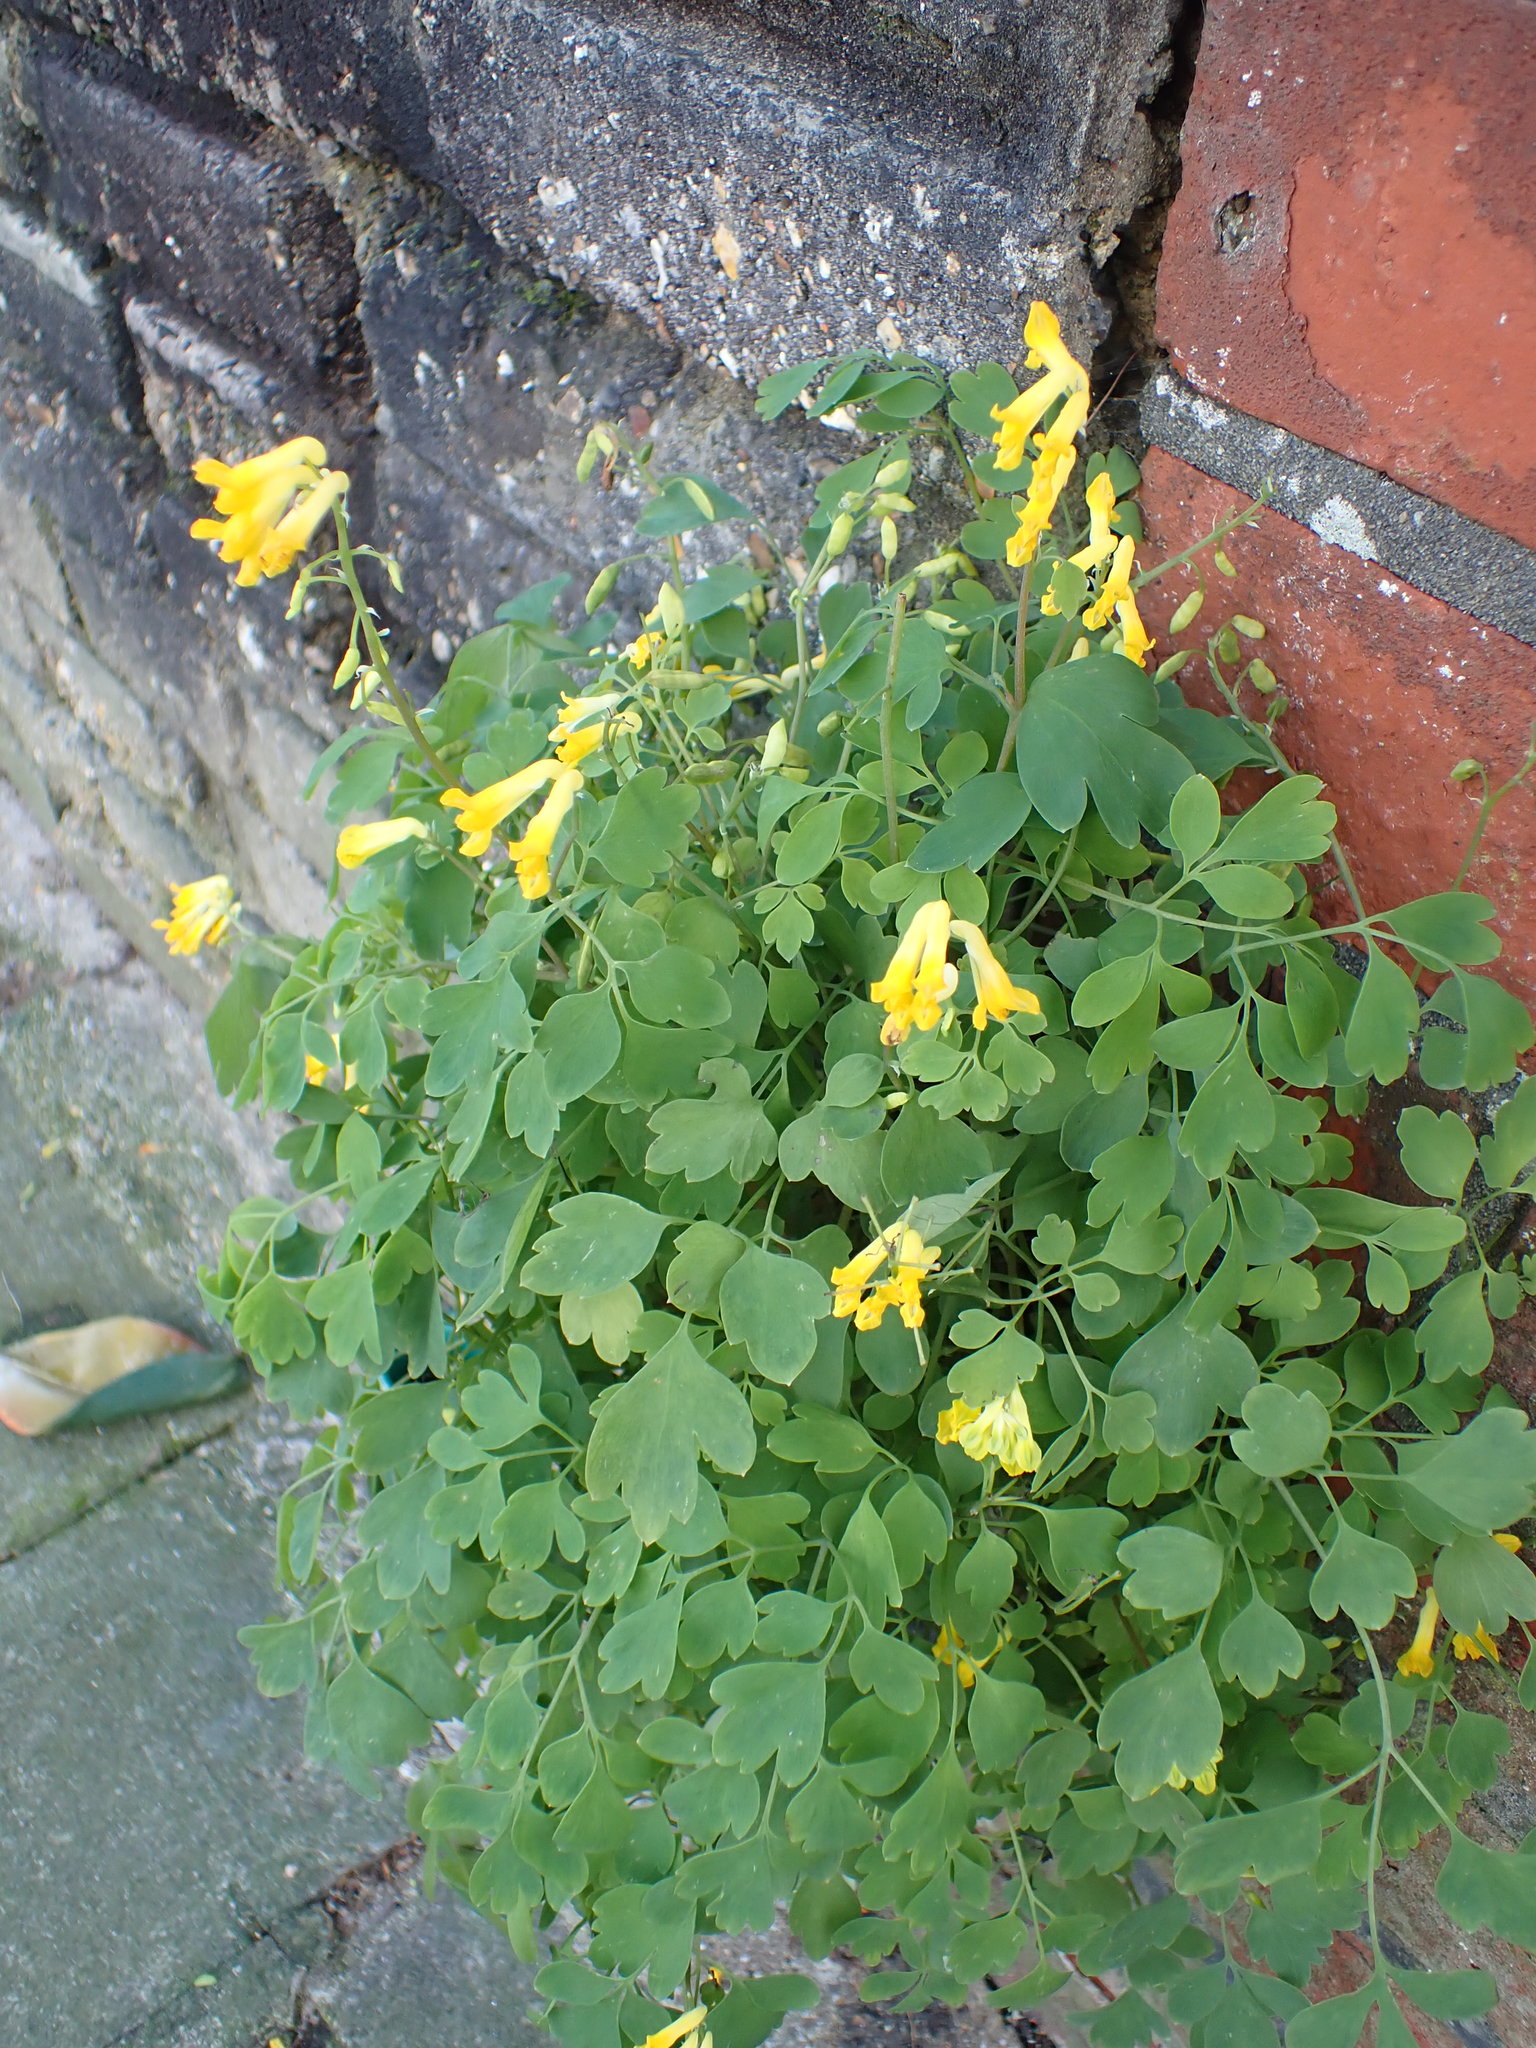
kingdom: Plantae
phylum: Tracheophyta
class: Magnoliopsida
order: Ranunculales
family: Papaveraceae
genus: Pseudofumaria
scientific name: Pseudofumaria lutea
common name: Yellow corydalis
